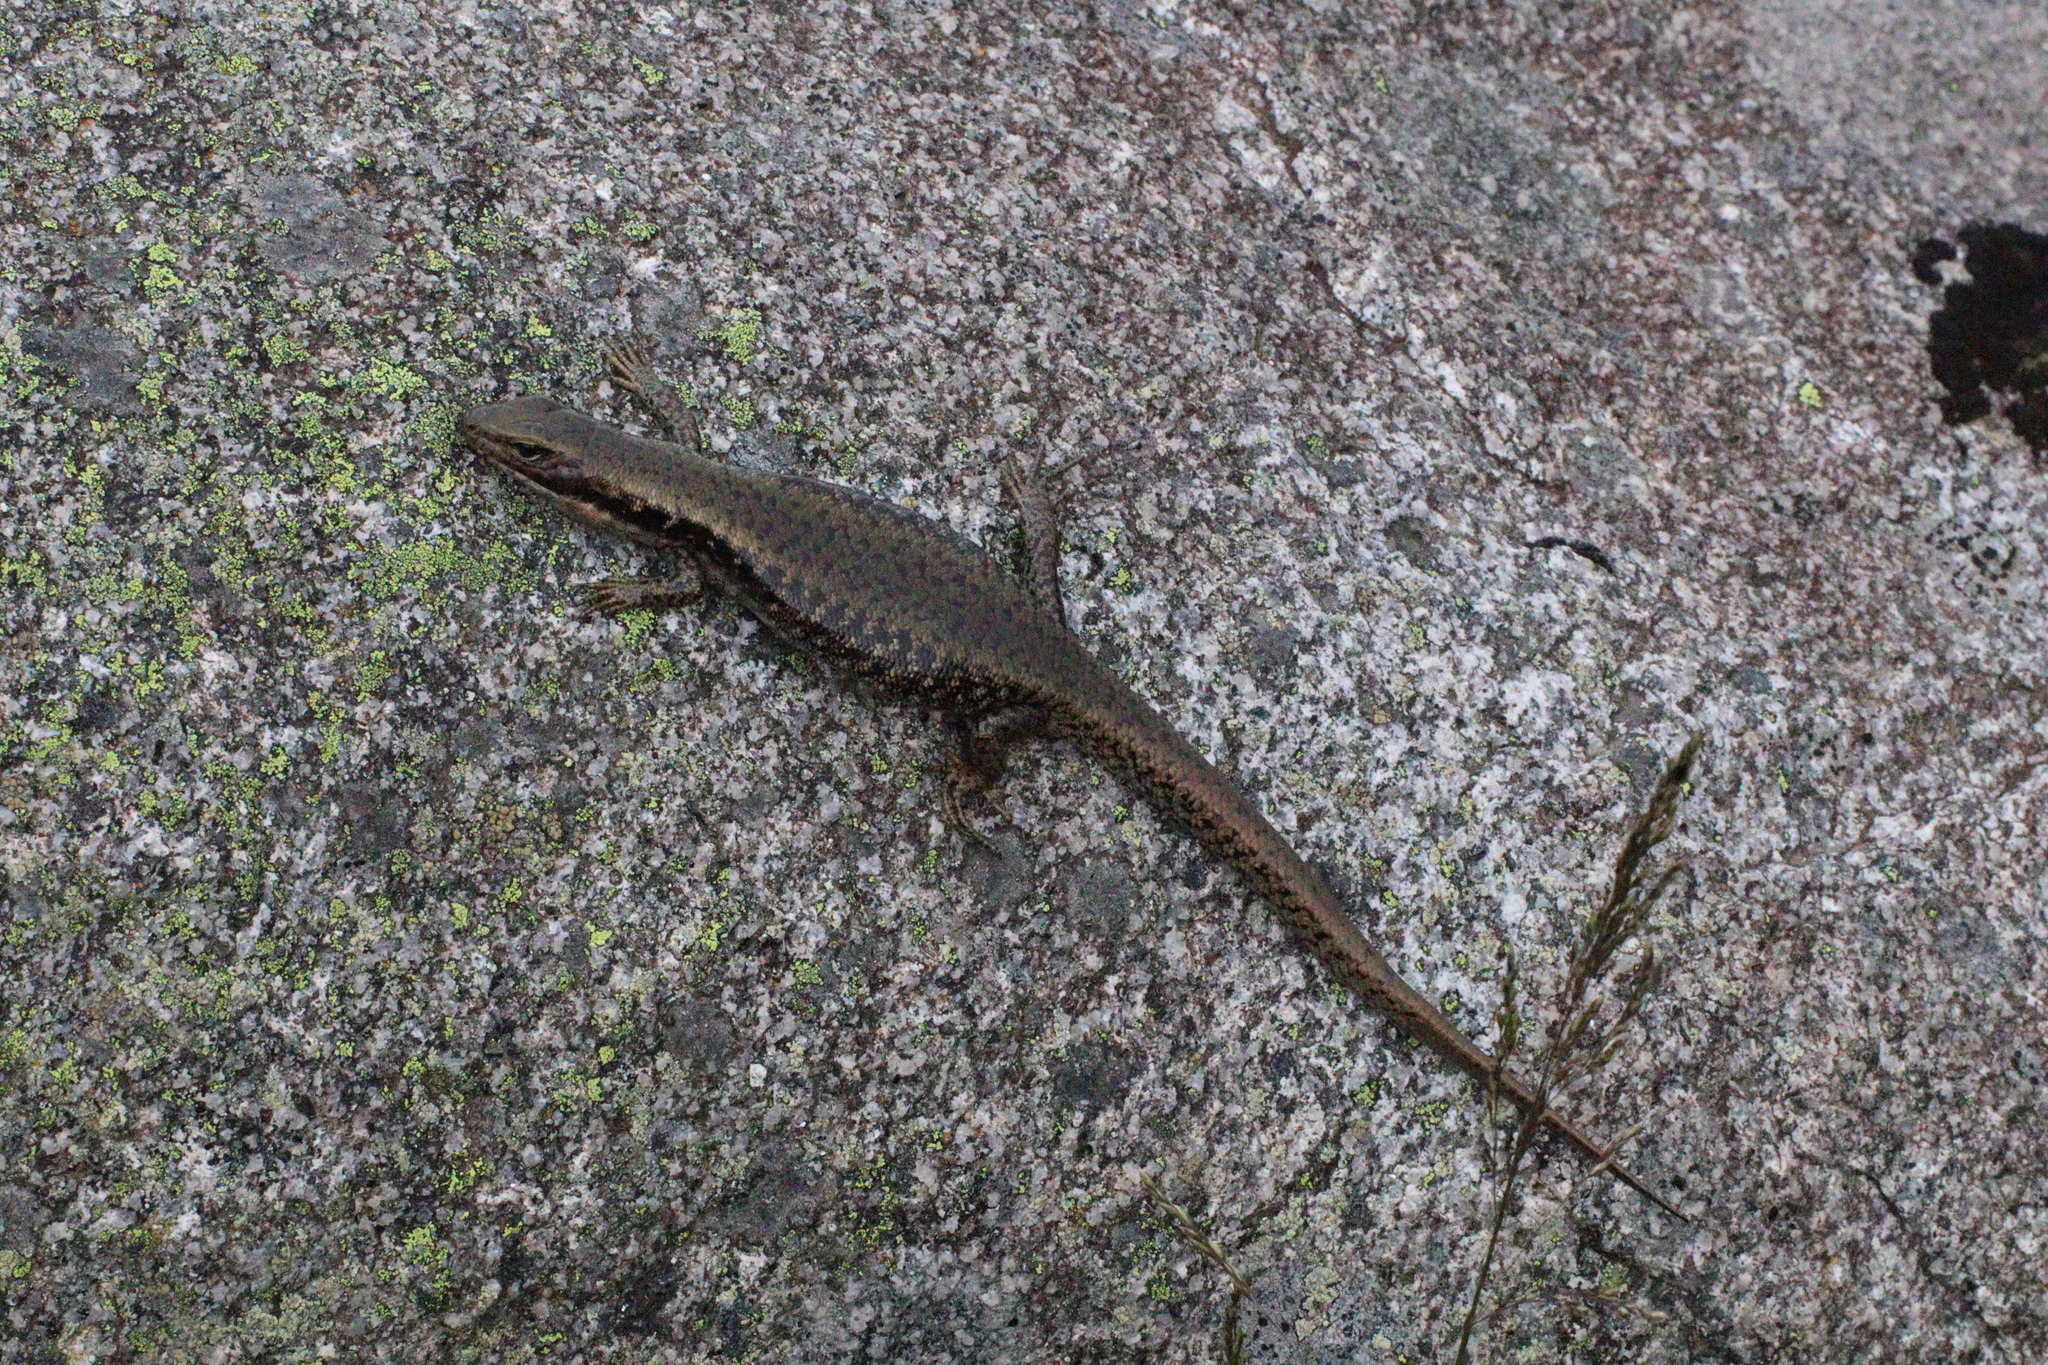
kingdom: Animalia
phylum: Chordata
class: Squamata
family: Scincidae
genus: Eulamprus
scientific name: Eulamprus tympanum
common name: Cool-temperate water-skink
